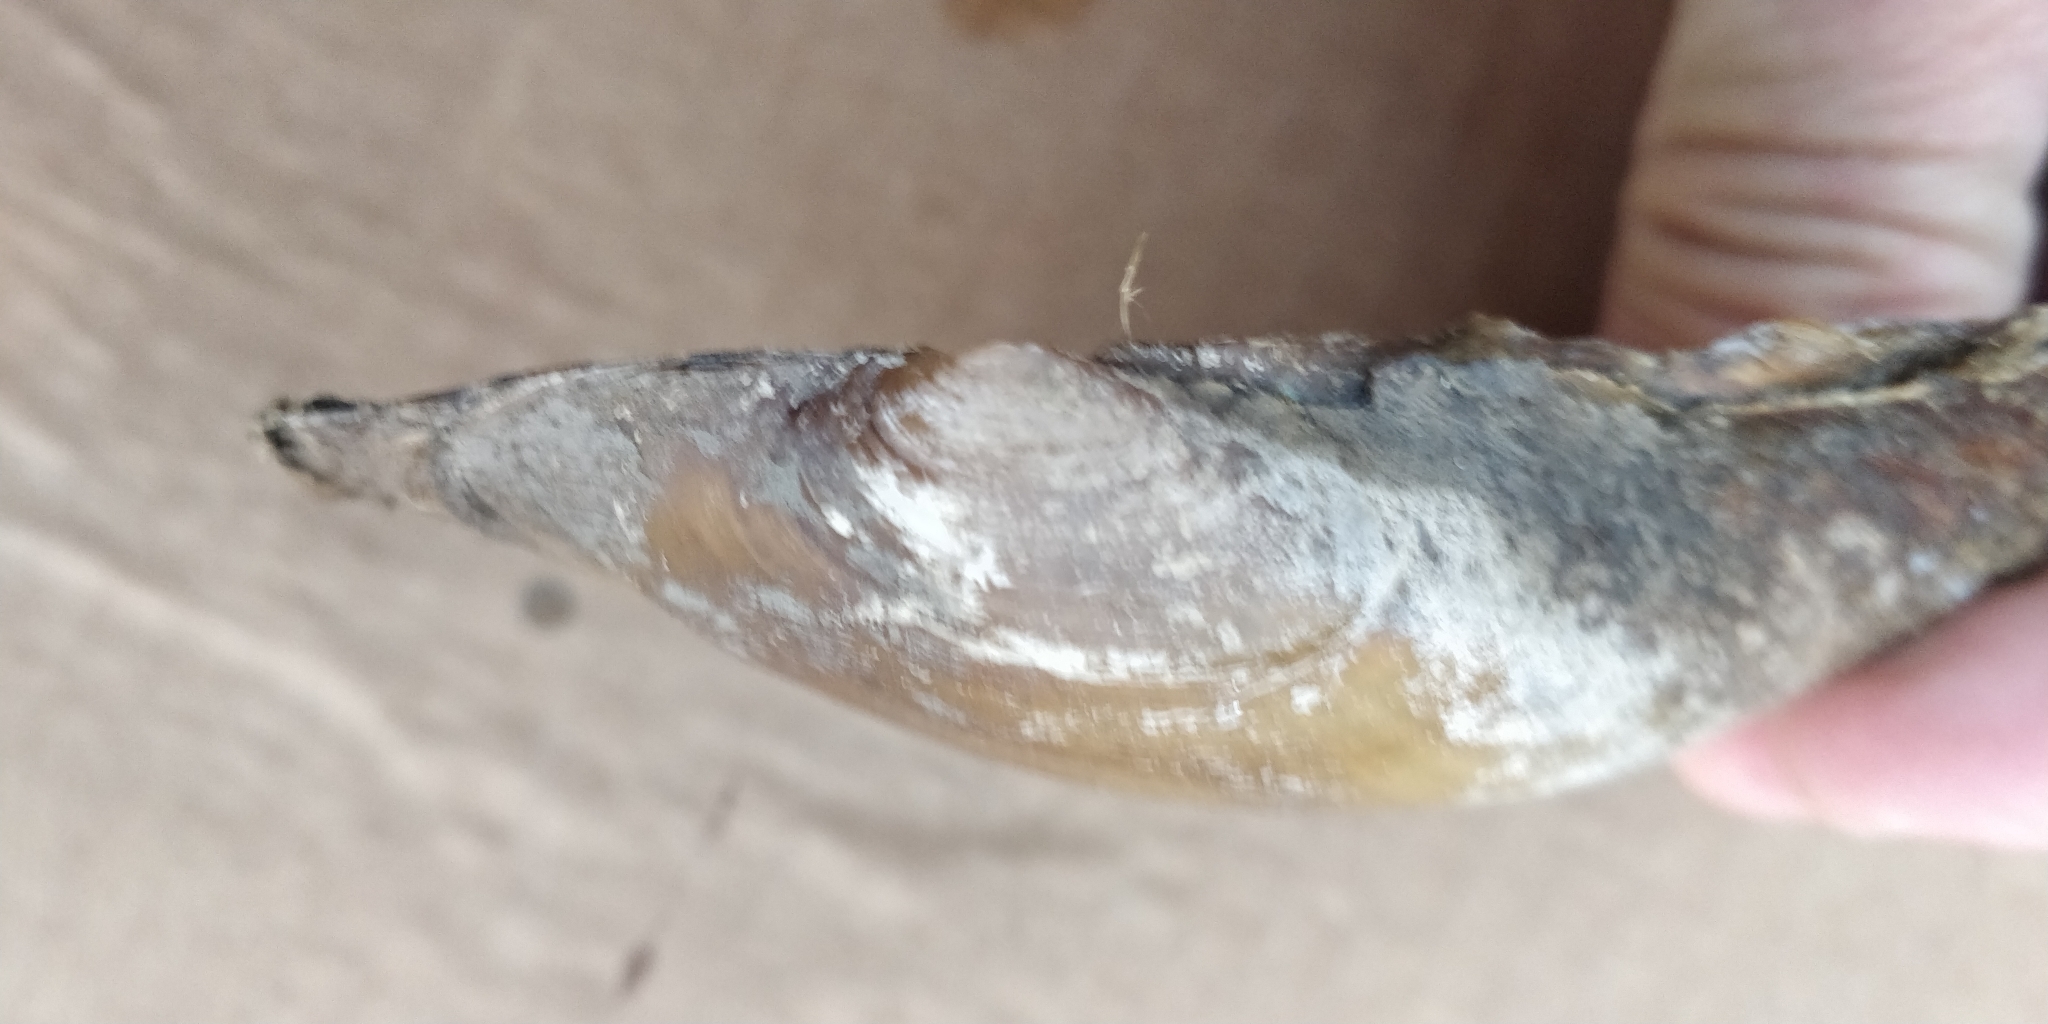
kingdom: Animalia
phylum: Mollusca
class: Bivalvia
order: Unionida
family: Unionidae
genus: Potamilus
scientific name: Potamilus fragilis
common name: Fragile papershell
